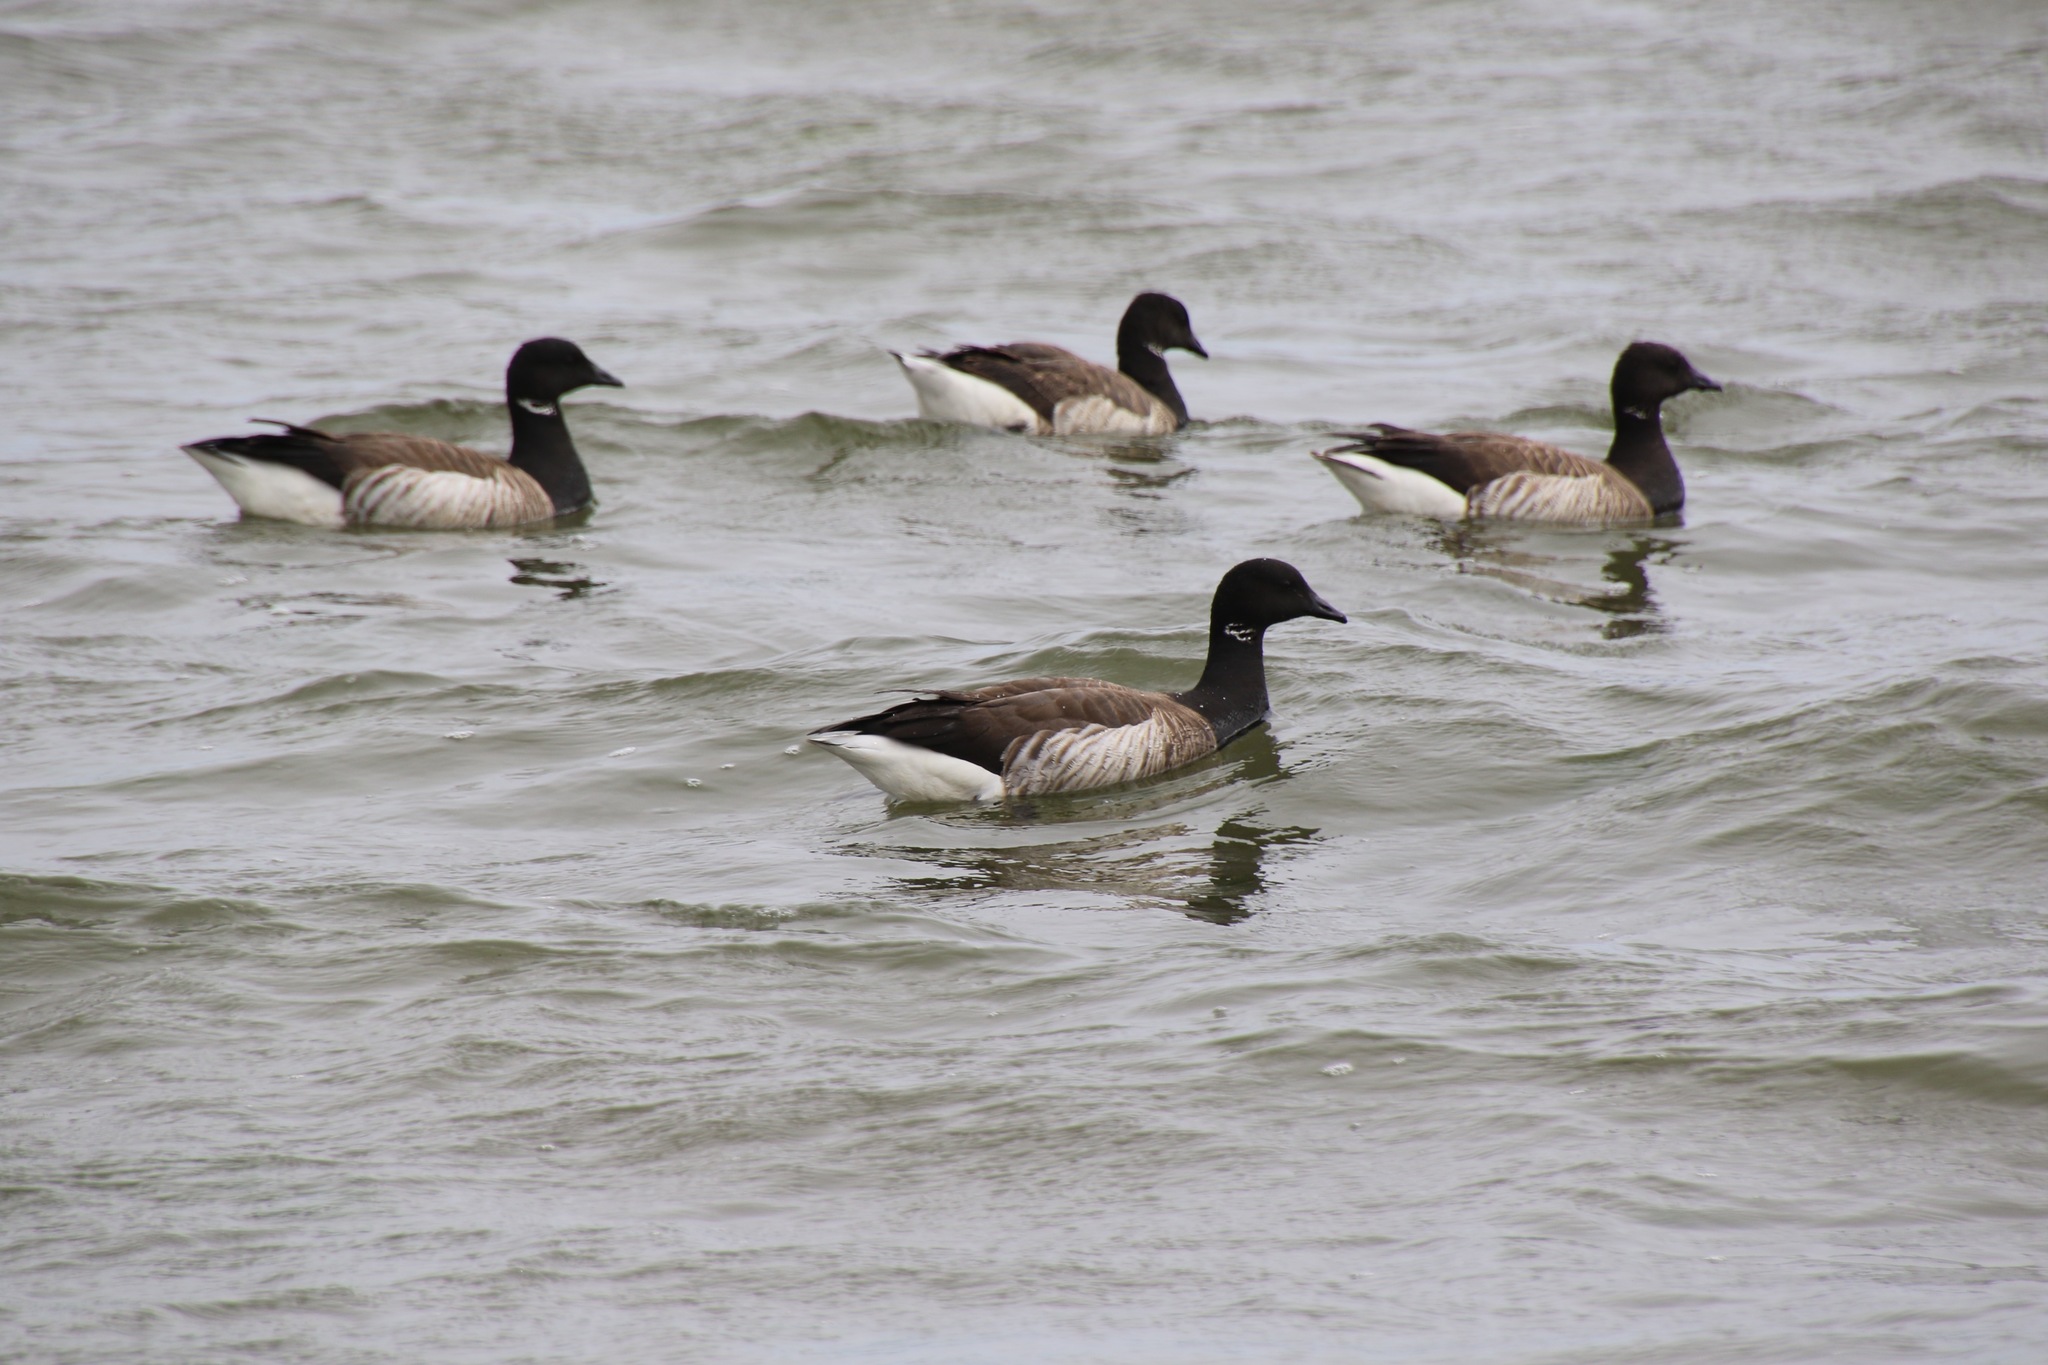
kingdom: Animalia
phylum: Chordata
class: Aves
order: Anseriformes
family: Anatidae
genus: Branta
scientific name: Branta bernicla
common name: Brant goose
